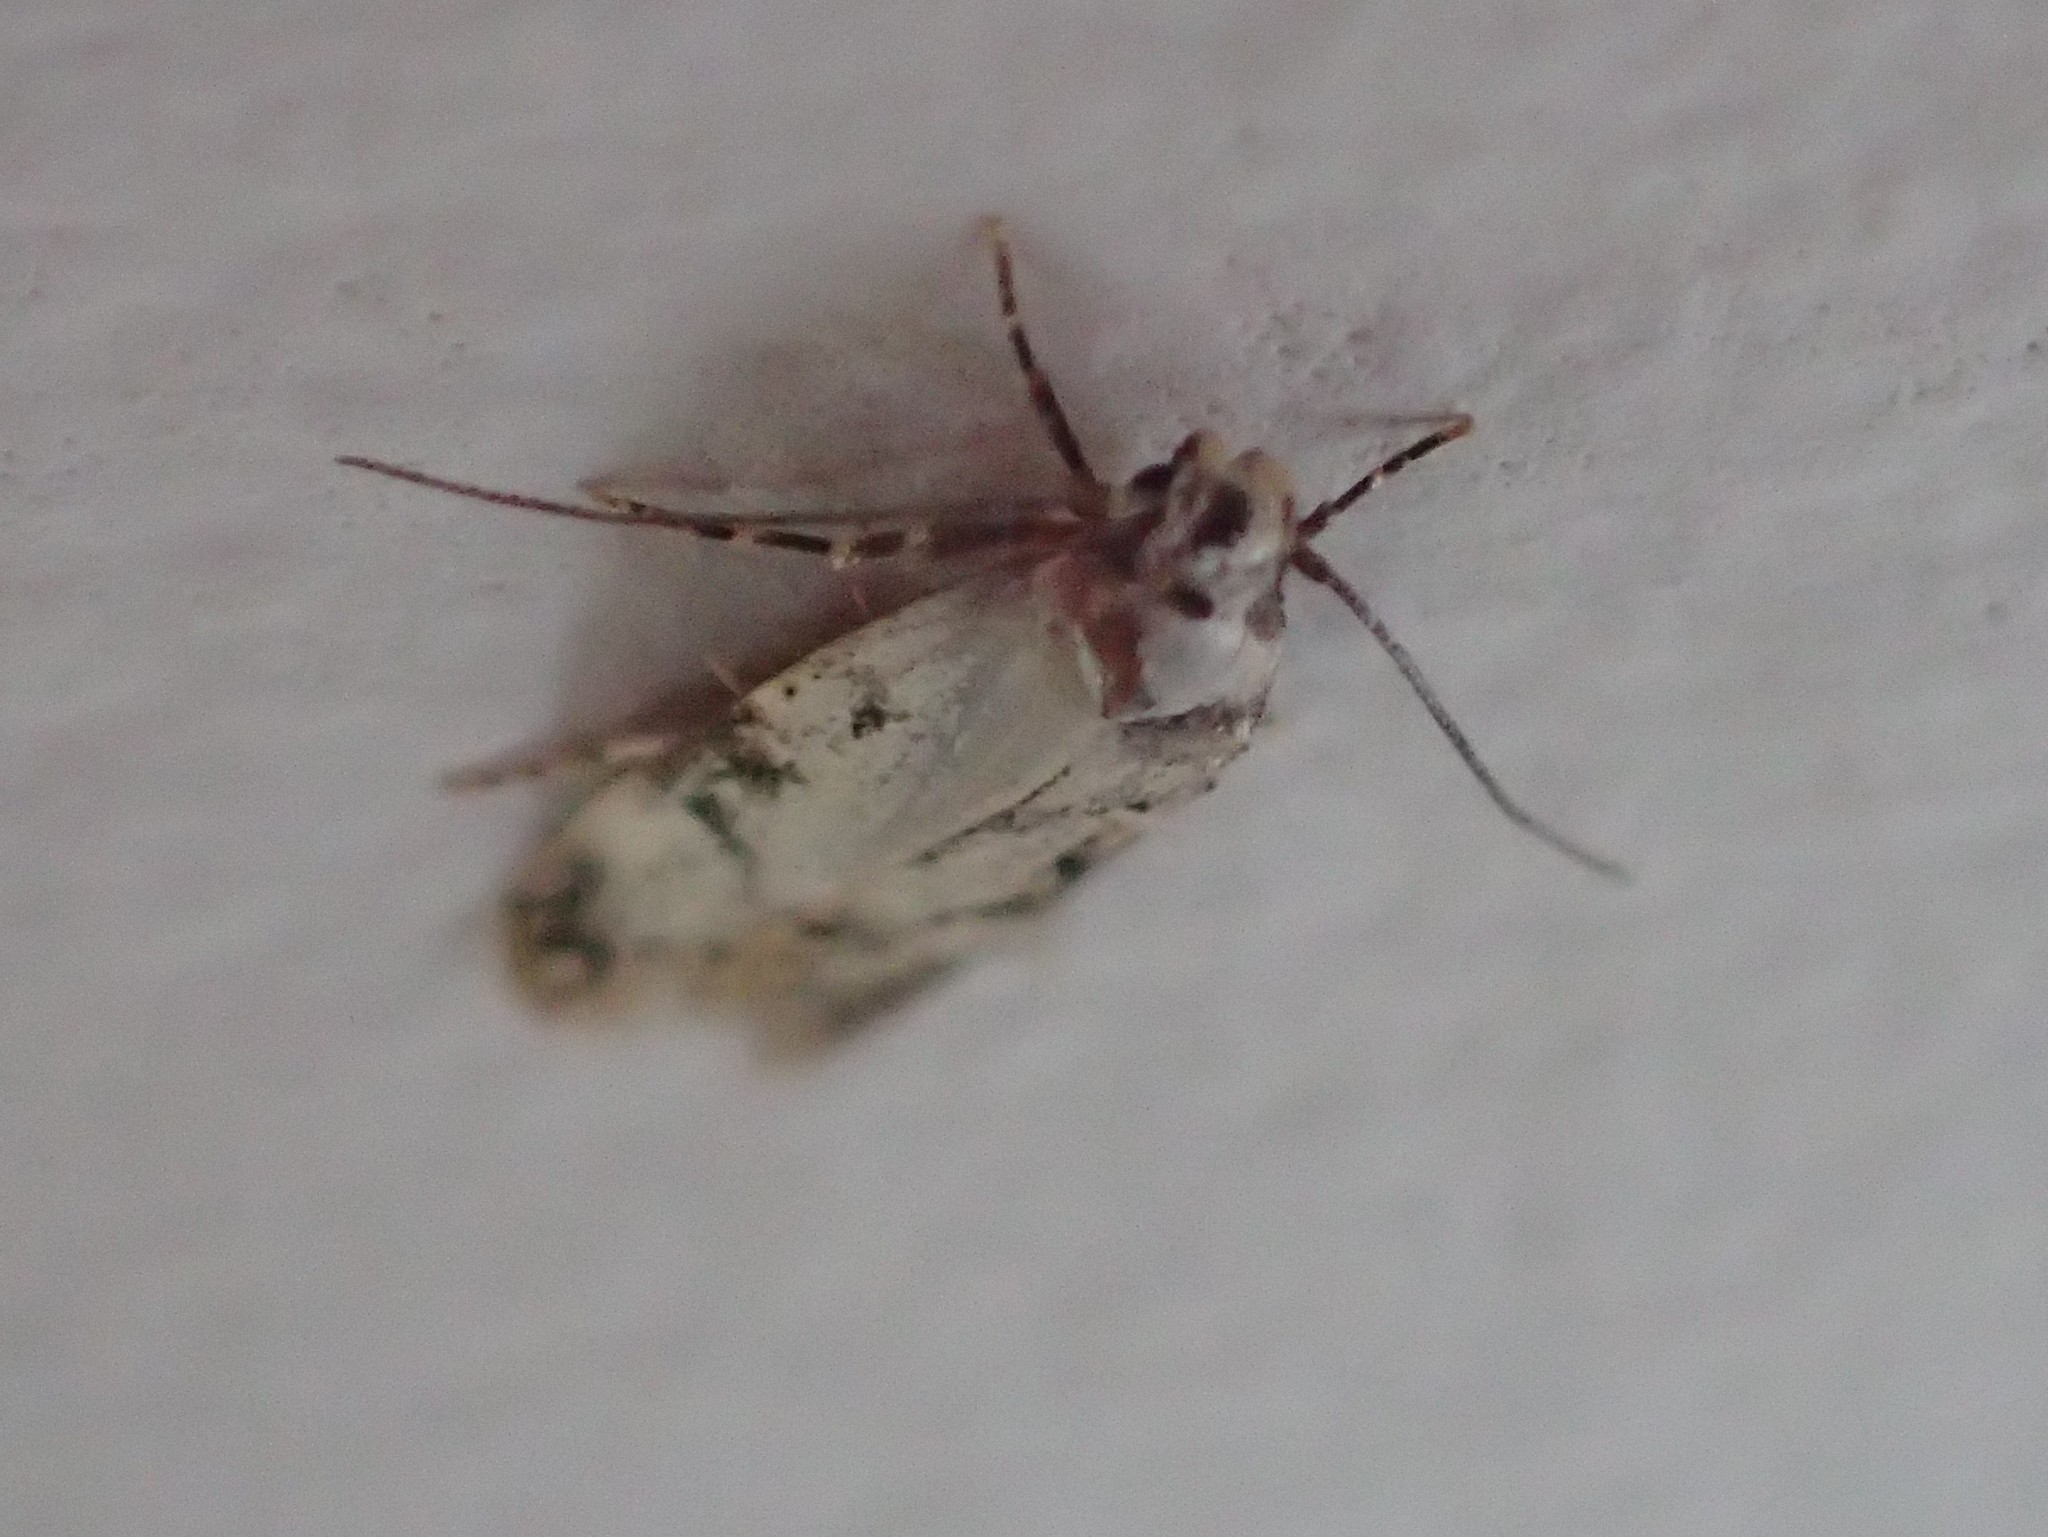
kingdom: Animalia
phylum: Arthropoda
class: Insecta
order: Lepidoptera
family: Oecophoridae
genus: Endrosis
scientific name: Endrosis sarcitrella
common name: White-shouldered house moth
